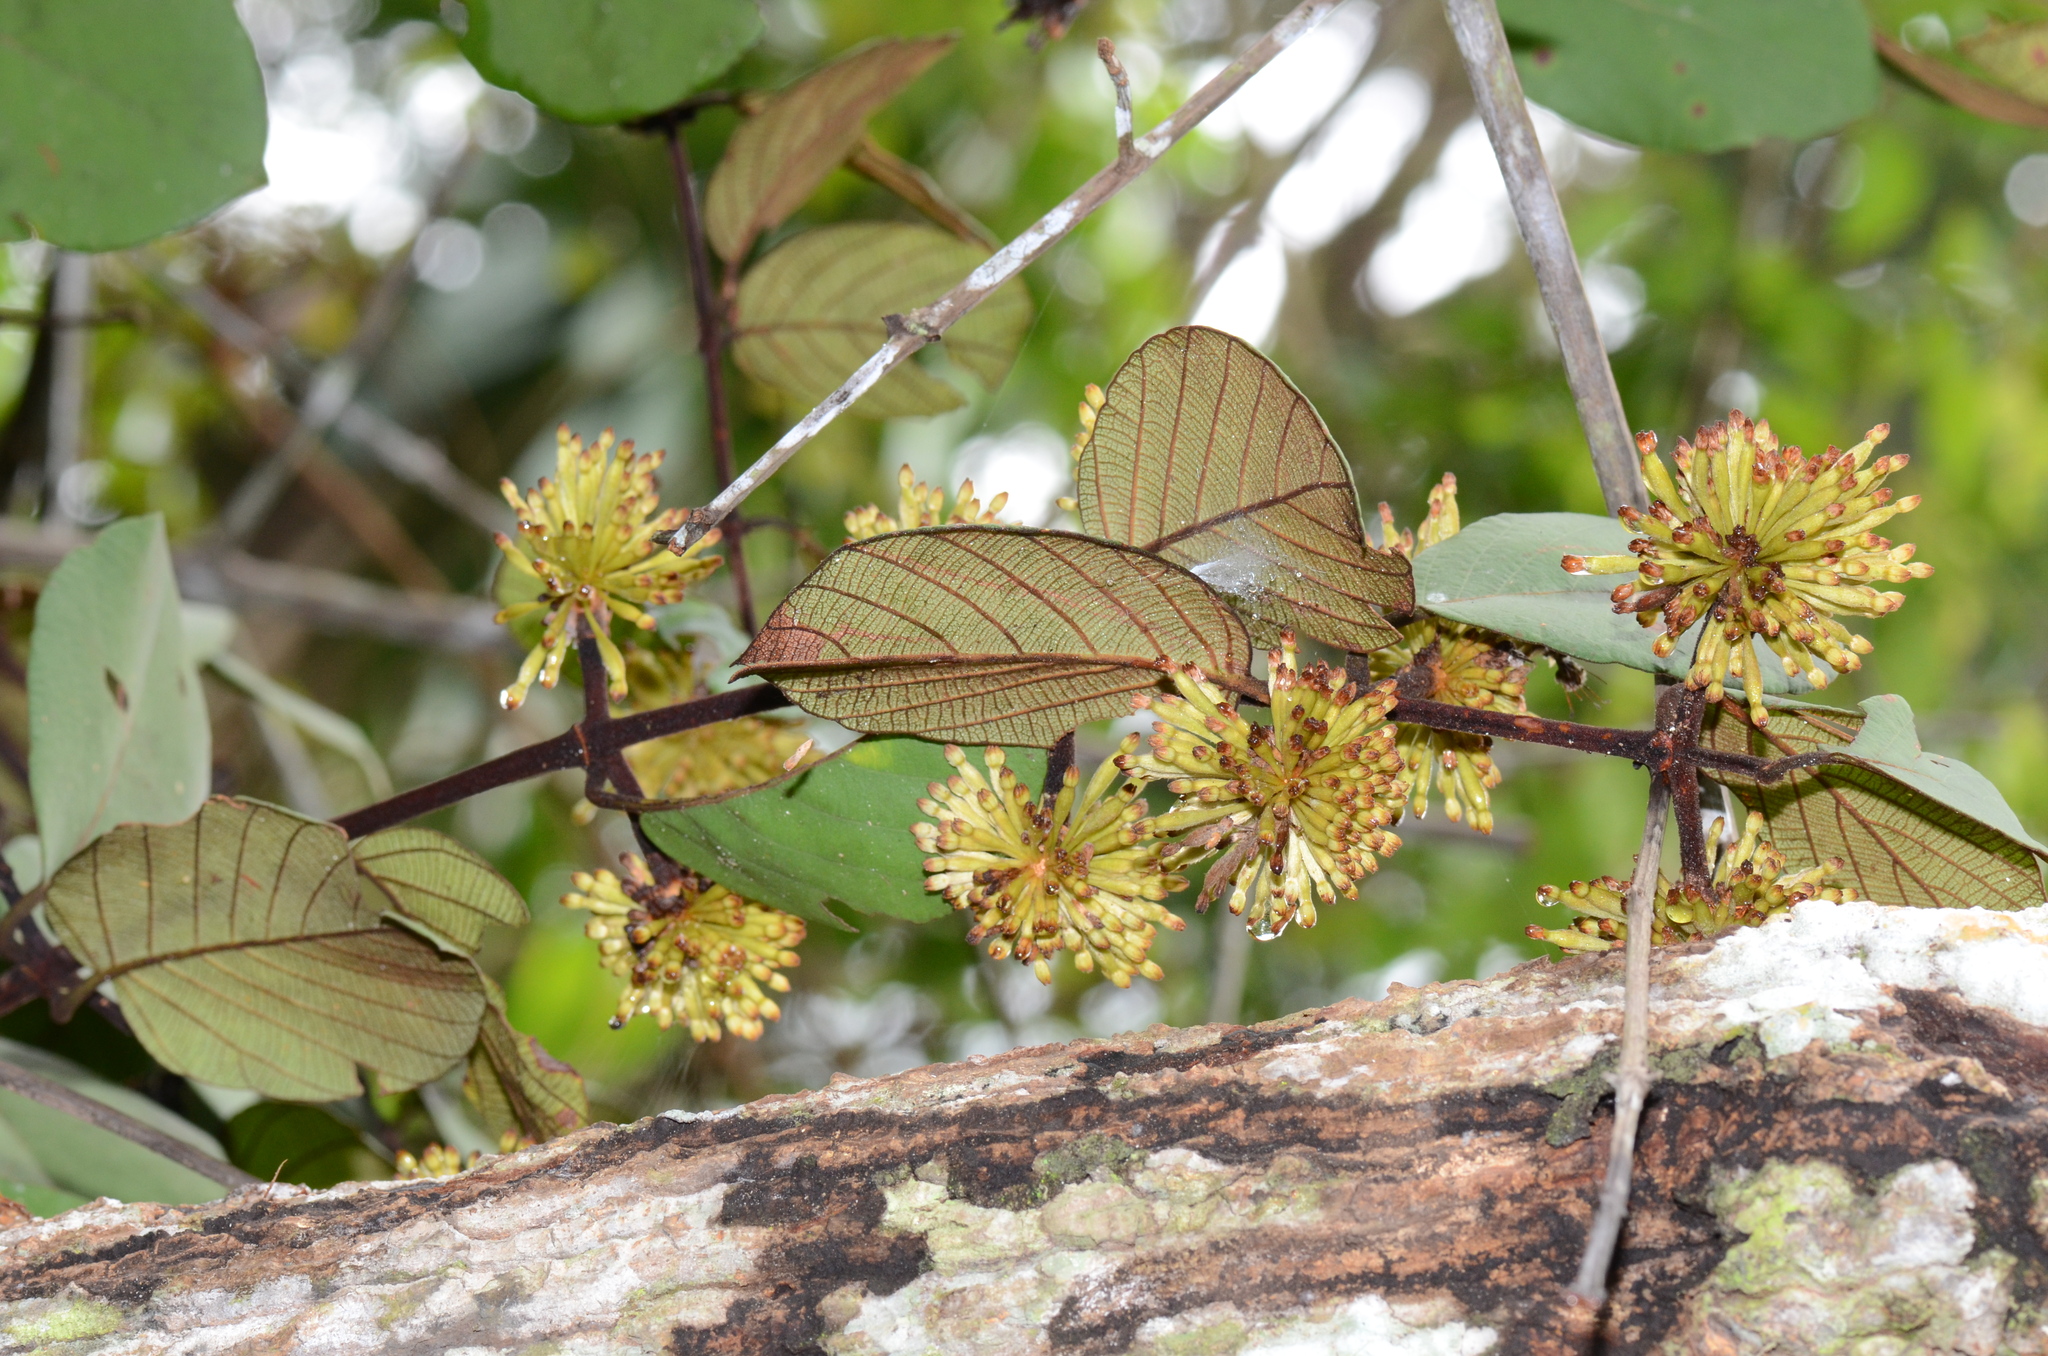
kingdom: Plantae
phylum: Tracheophyta
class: Magnoliopsida
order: Gentianales
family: Rubiaceae
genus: Uncaria
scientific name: Uncaria cordata
